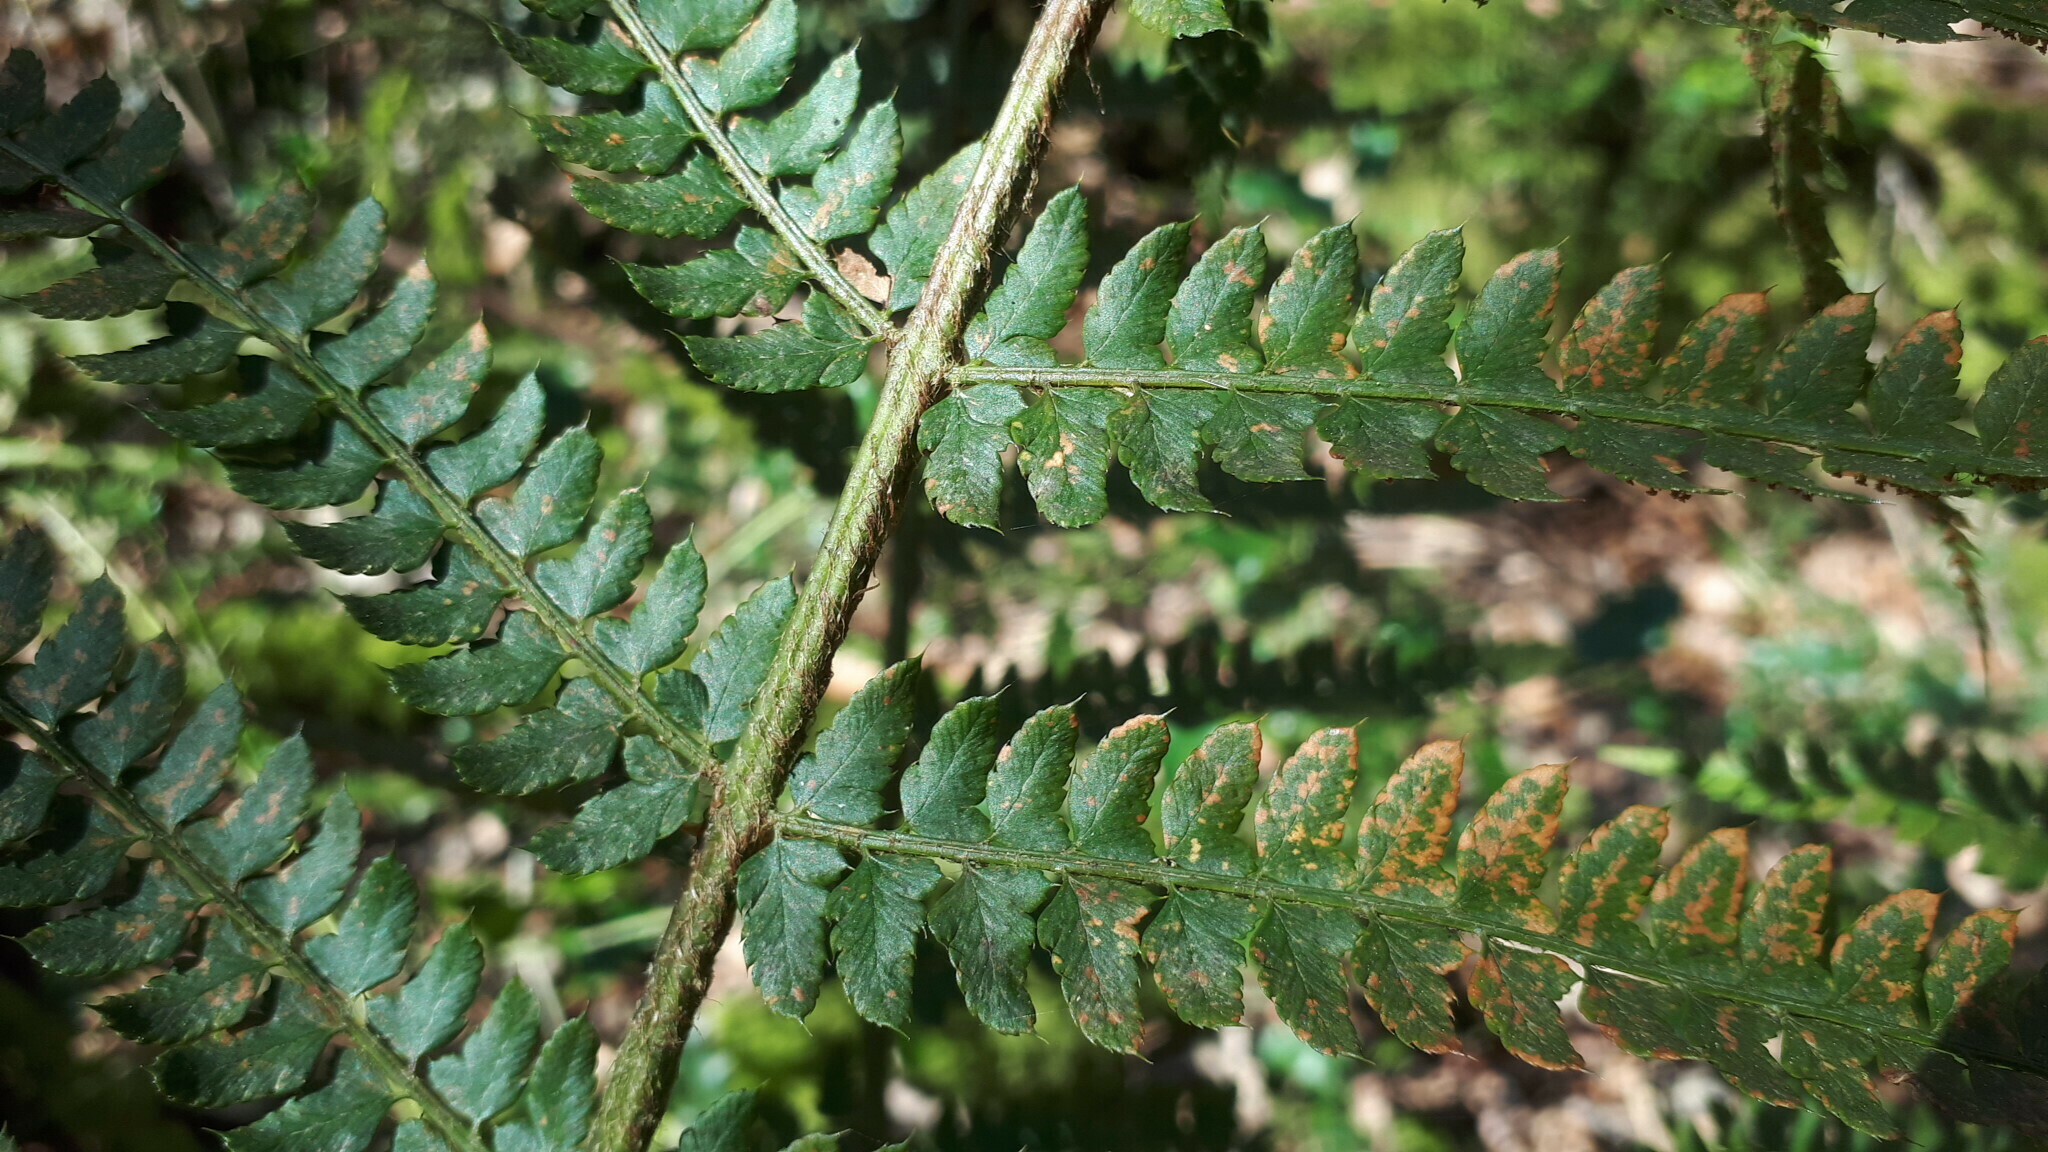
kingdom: Plantae
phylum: Tracheophyta
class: Polypodiopsida
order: Polypodiales
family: Dryopteridaceae
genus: Polystichum
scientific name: Polystichum setiferum
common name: Soft shield-fern
